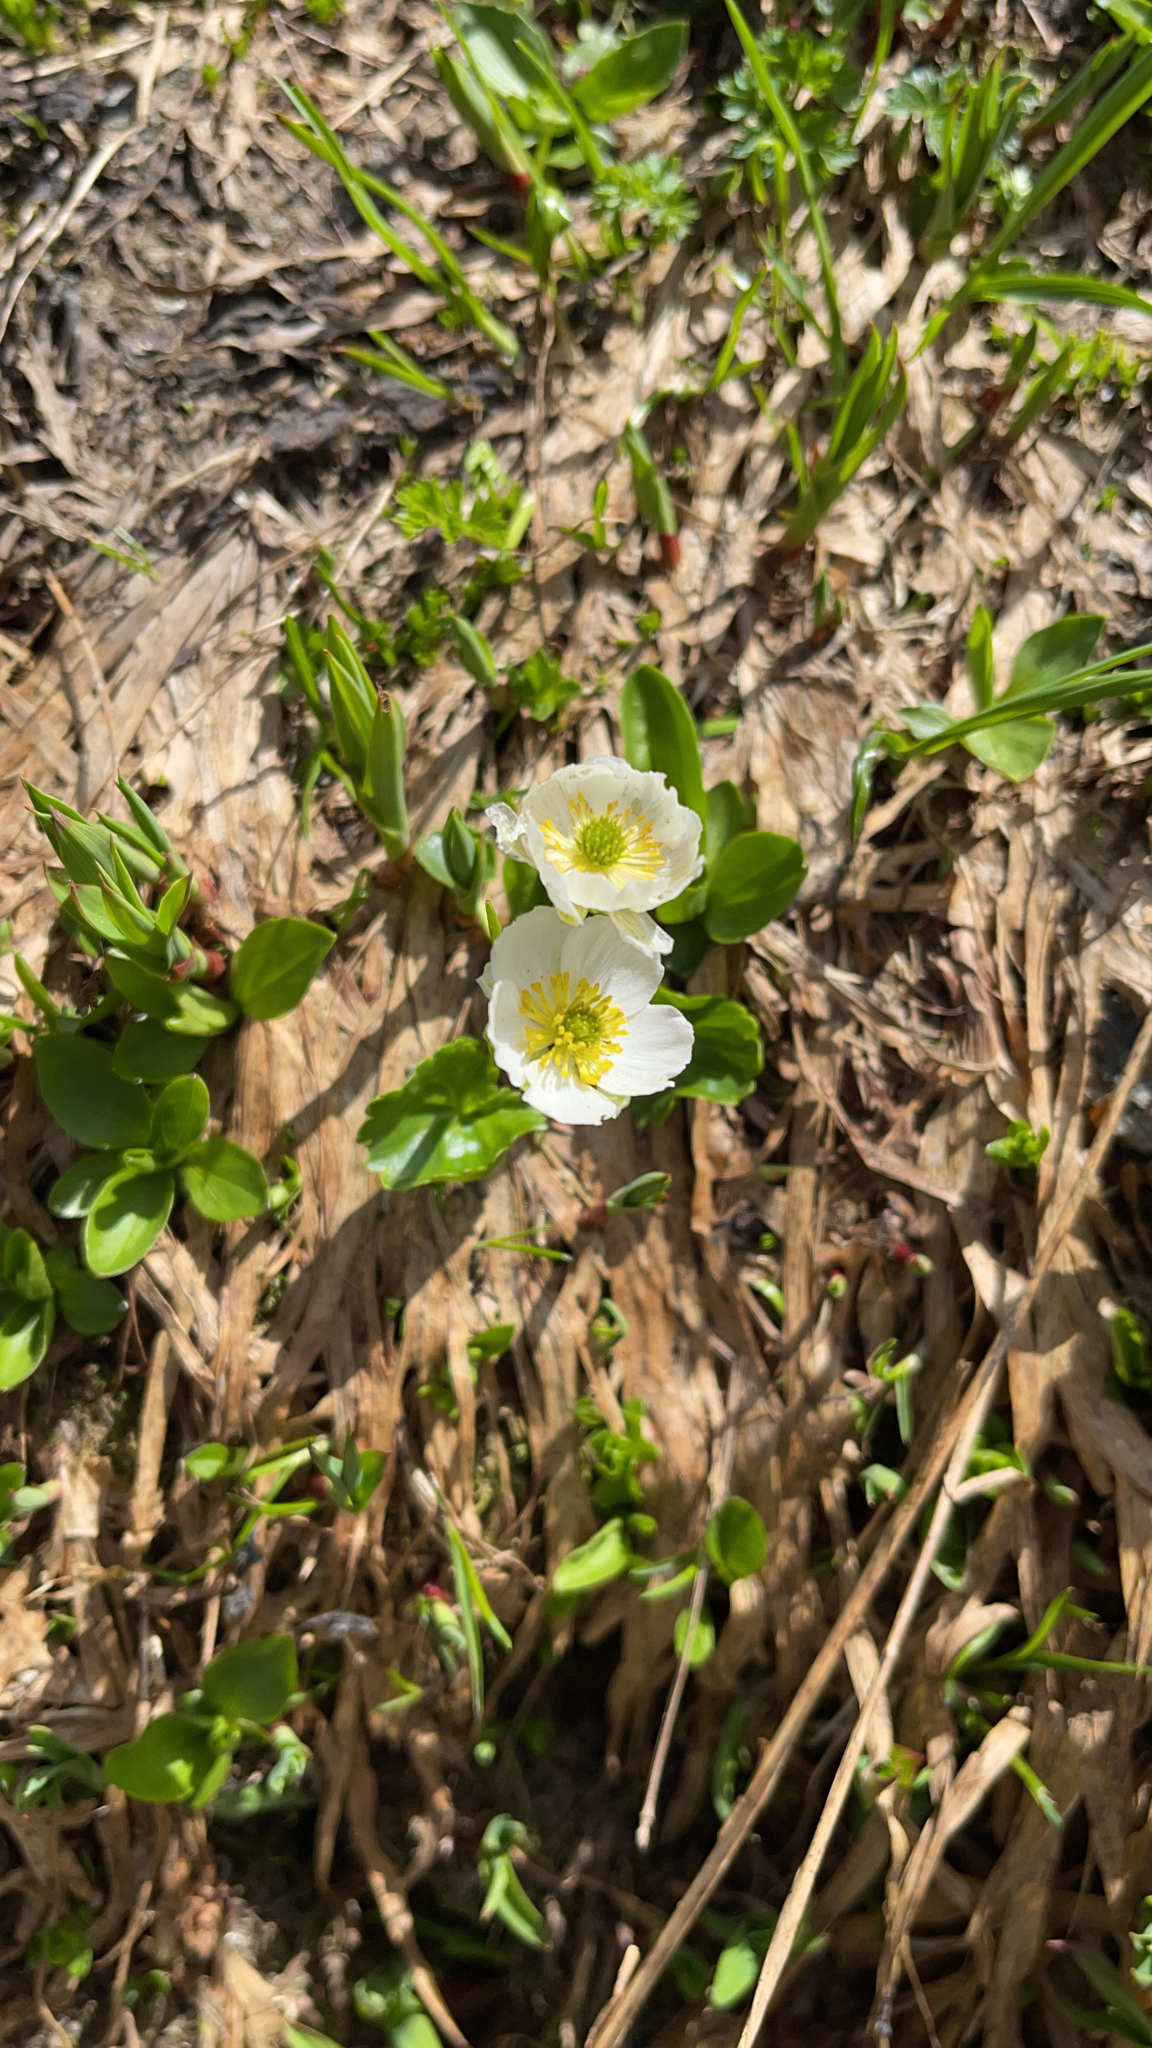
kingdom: Plantae
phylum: Tracheophyta
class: Magnoliopsida
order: Ranunculales
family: Ranunculaceae
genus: Ranunculus
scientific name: Ranunculus crenatus
